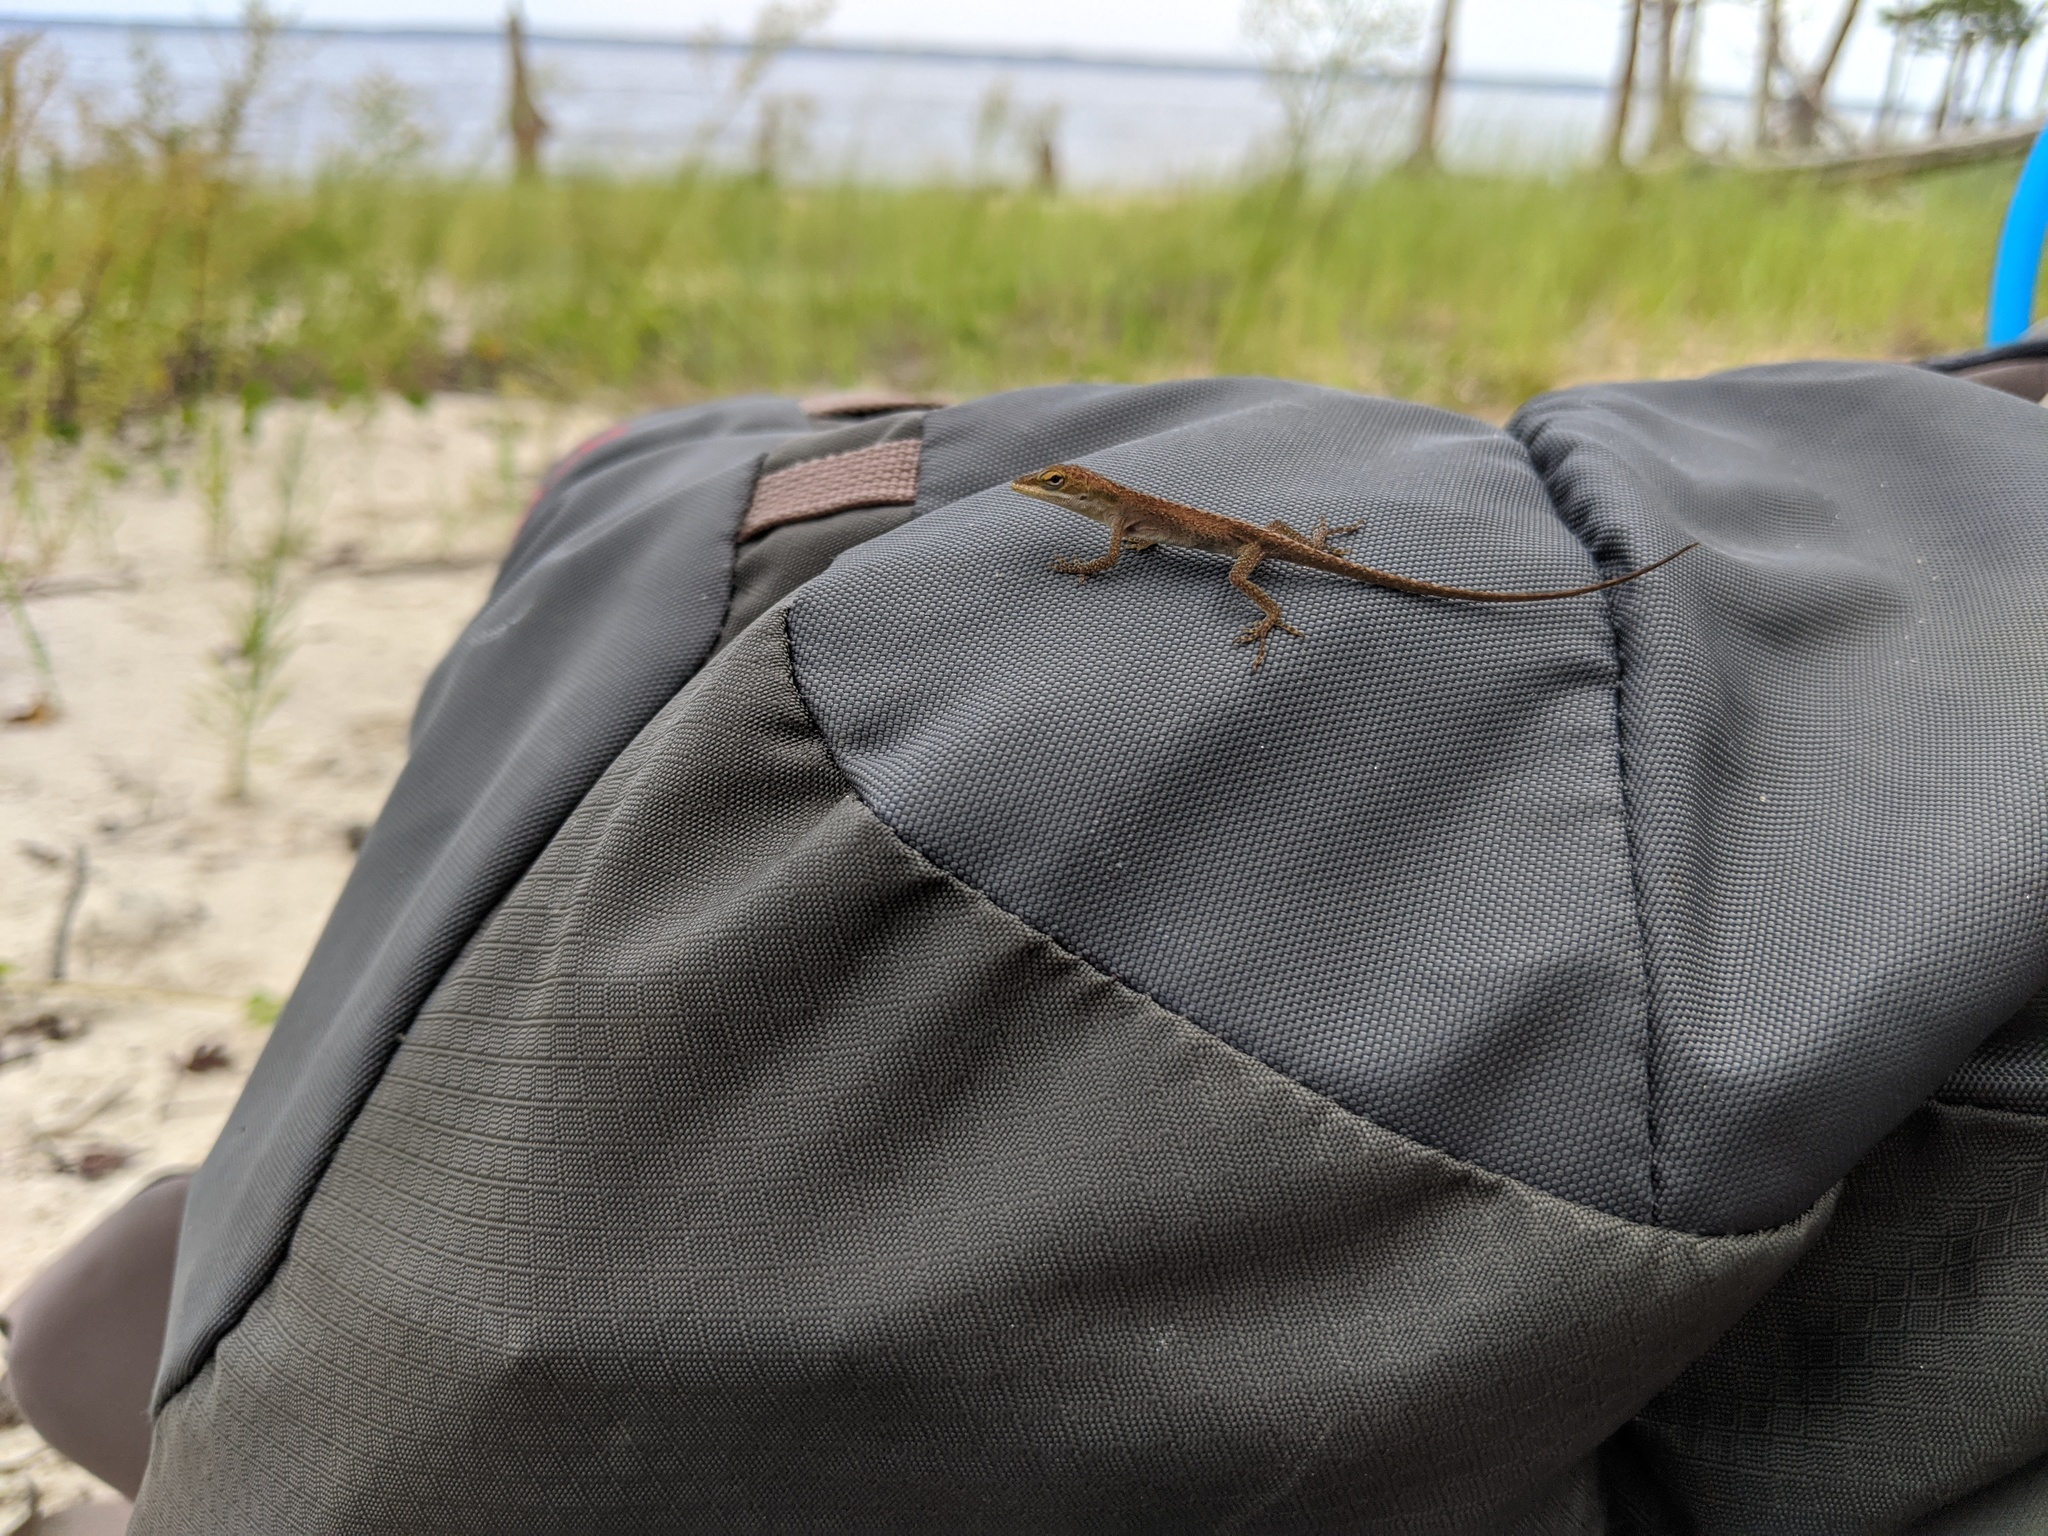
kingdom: Animalia
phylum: Chordata
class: Squamata
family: Dactyloidae
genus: Anolis
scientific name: Anolis carolinensis
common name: Green anole
